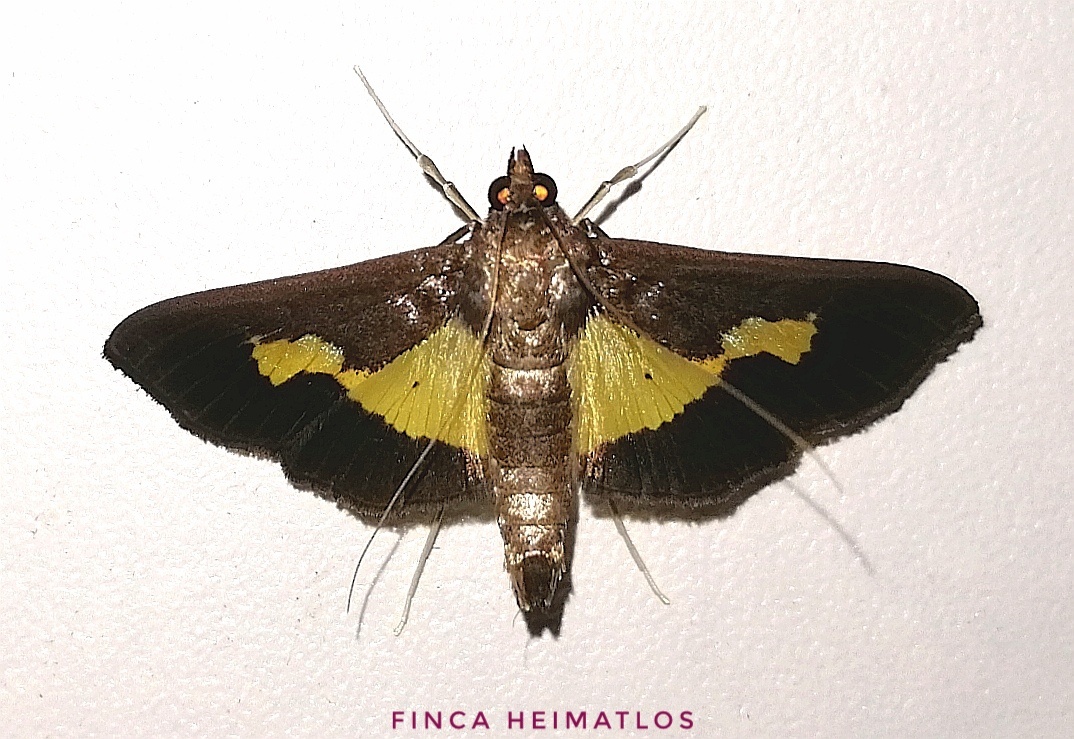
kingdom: Animalia
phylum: Arthropoda
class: Insecta
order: Lepidoptera
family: Crambidae
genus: Cryptographis
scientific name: Cryptographis nitidalis
